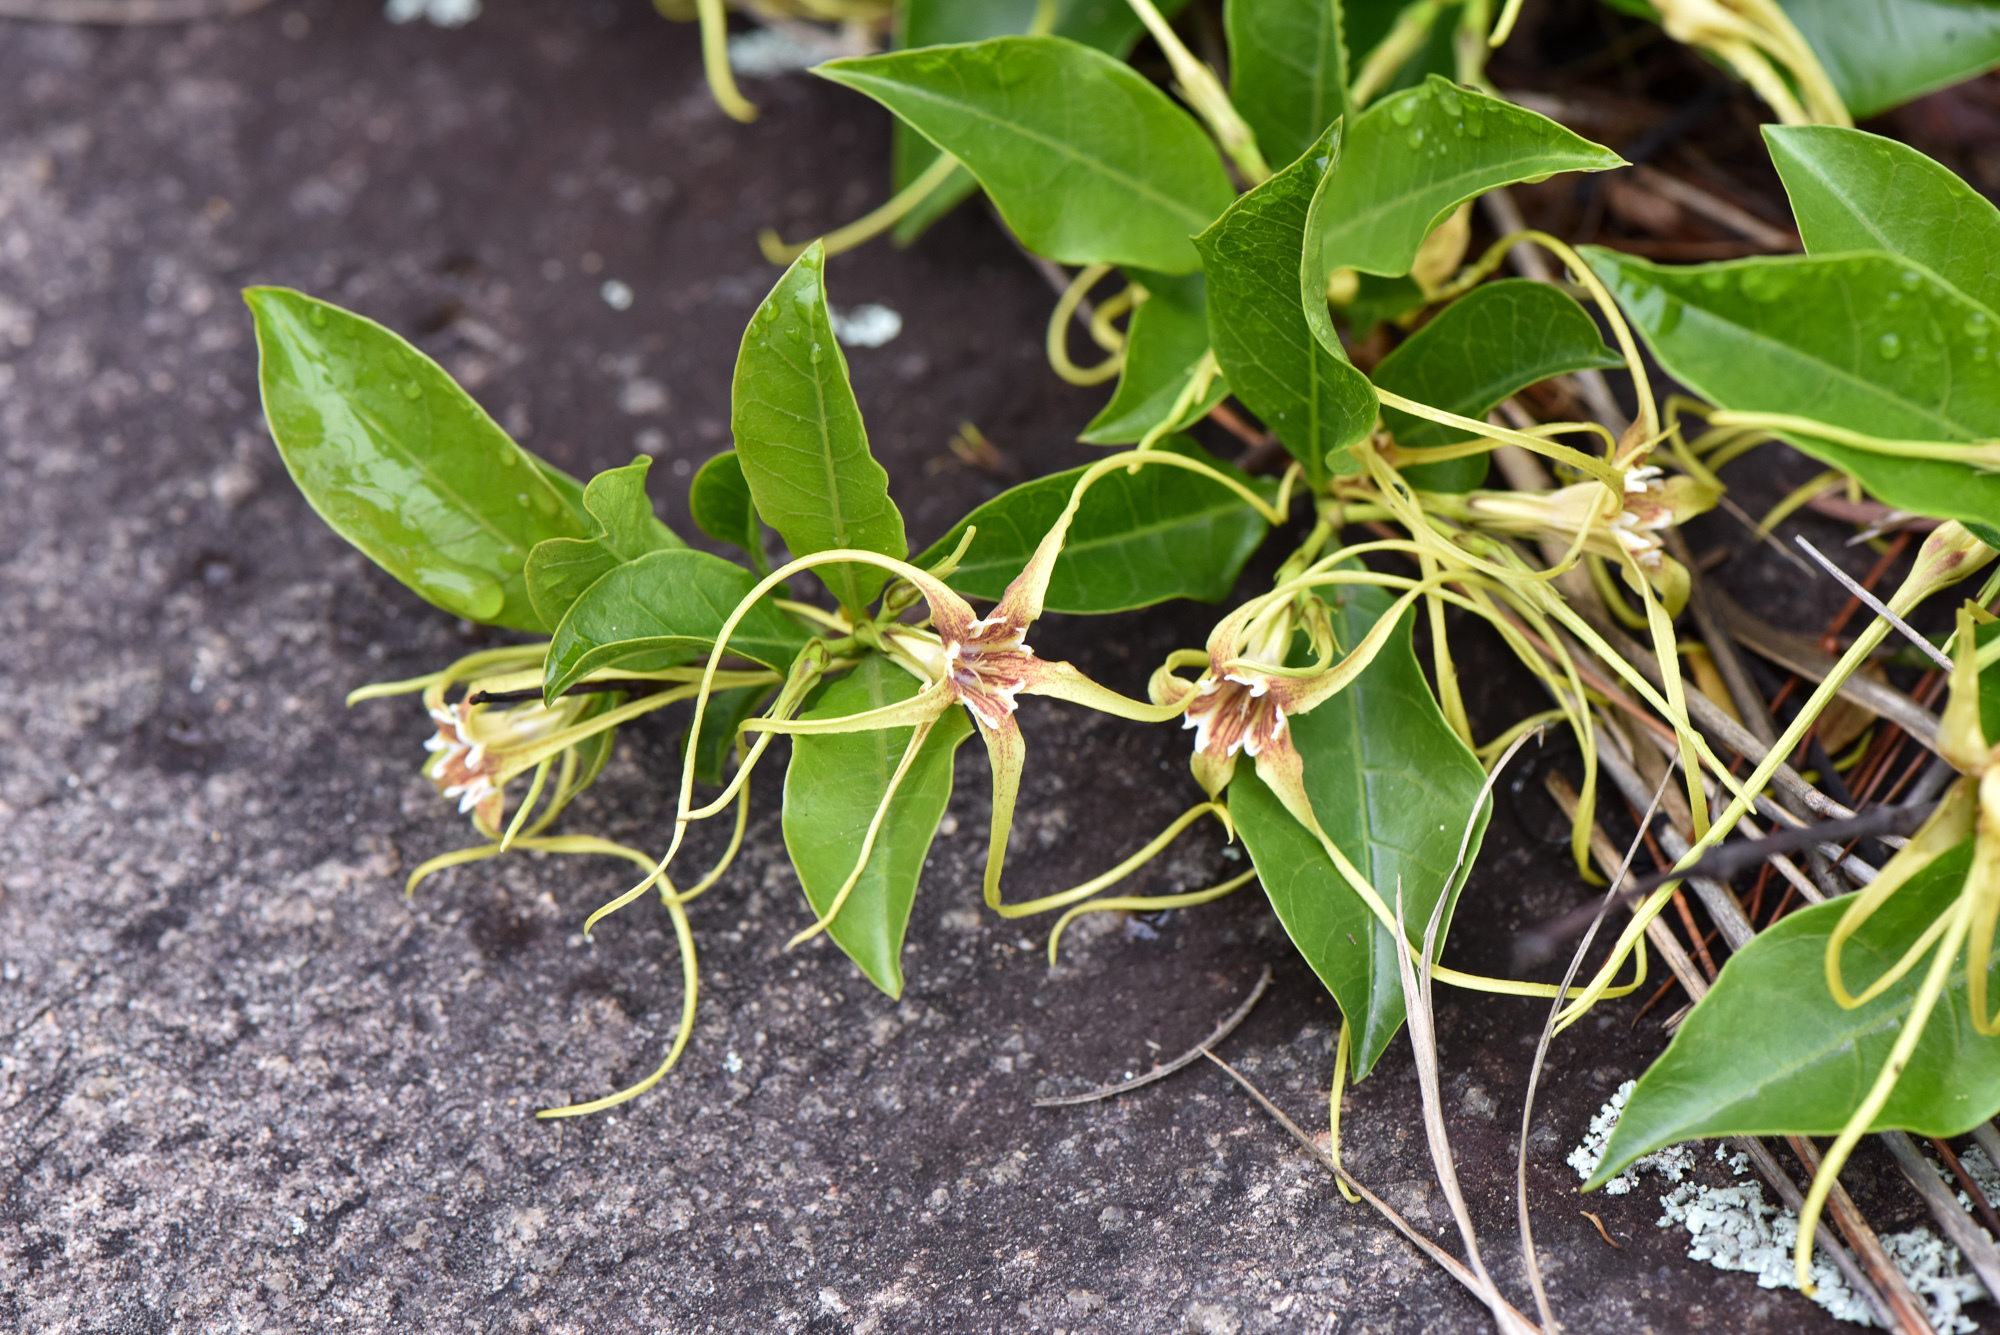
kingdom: Plantae
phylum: Tracheophyta
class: Magnoliopsida
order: Gentianales
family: Apocynaceae
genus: Strophanthus
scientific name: Strophanthus divaricatus
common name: Goat-horns
